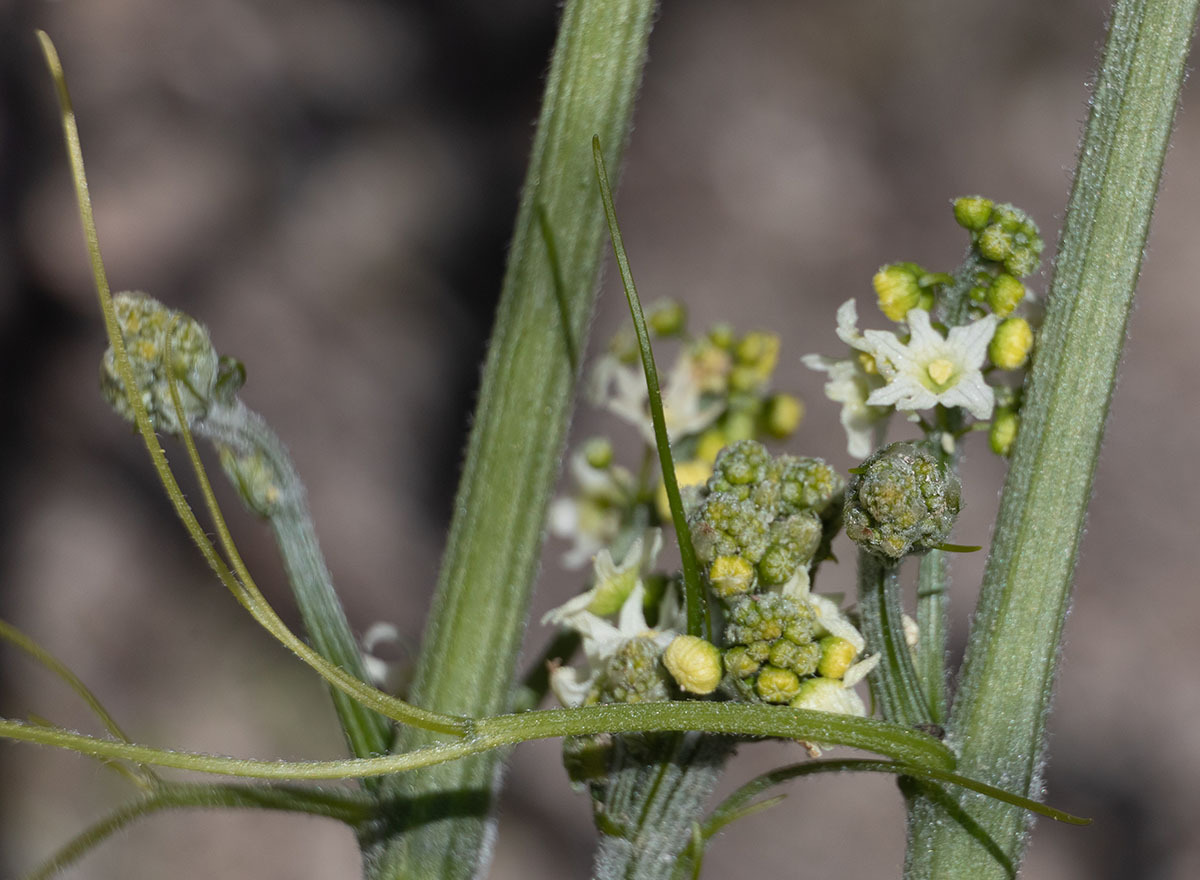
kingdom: Plantae
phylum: Tracheophyta
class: Magnoliopsida
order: Cucurbitales
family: Cucurbitaceae
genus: Marah
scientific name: Marah fabacea
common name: California manroot
